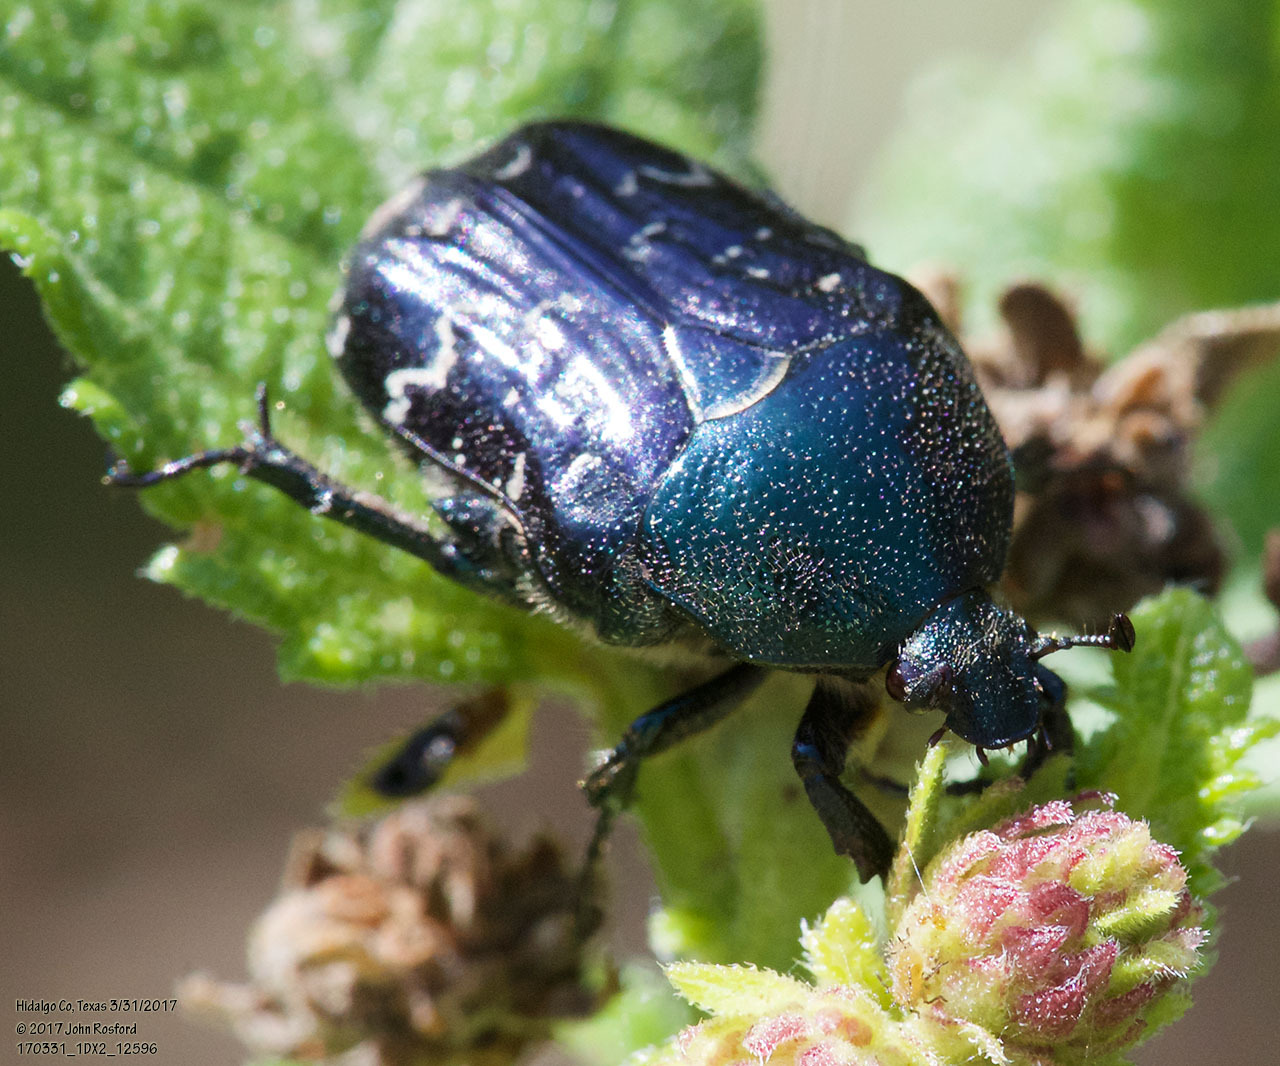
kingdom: Animalia
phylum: Arthropoda
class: Insecta
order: Coleoptera
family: Scarabaeidae
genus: Euphoria
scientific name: Euphoria sepulcralis
